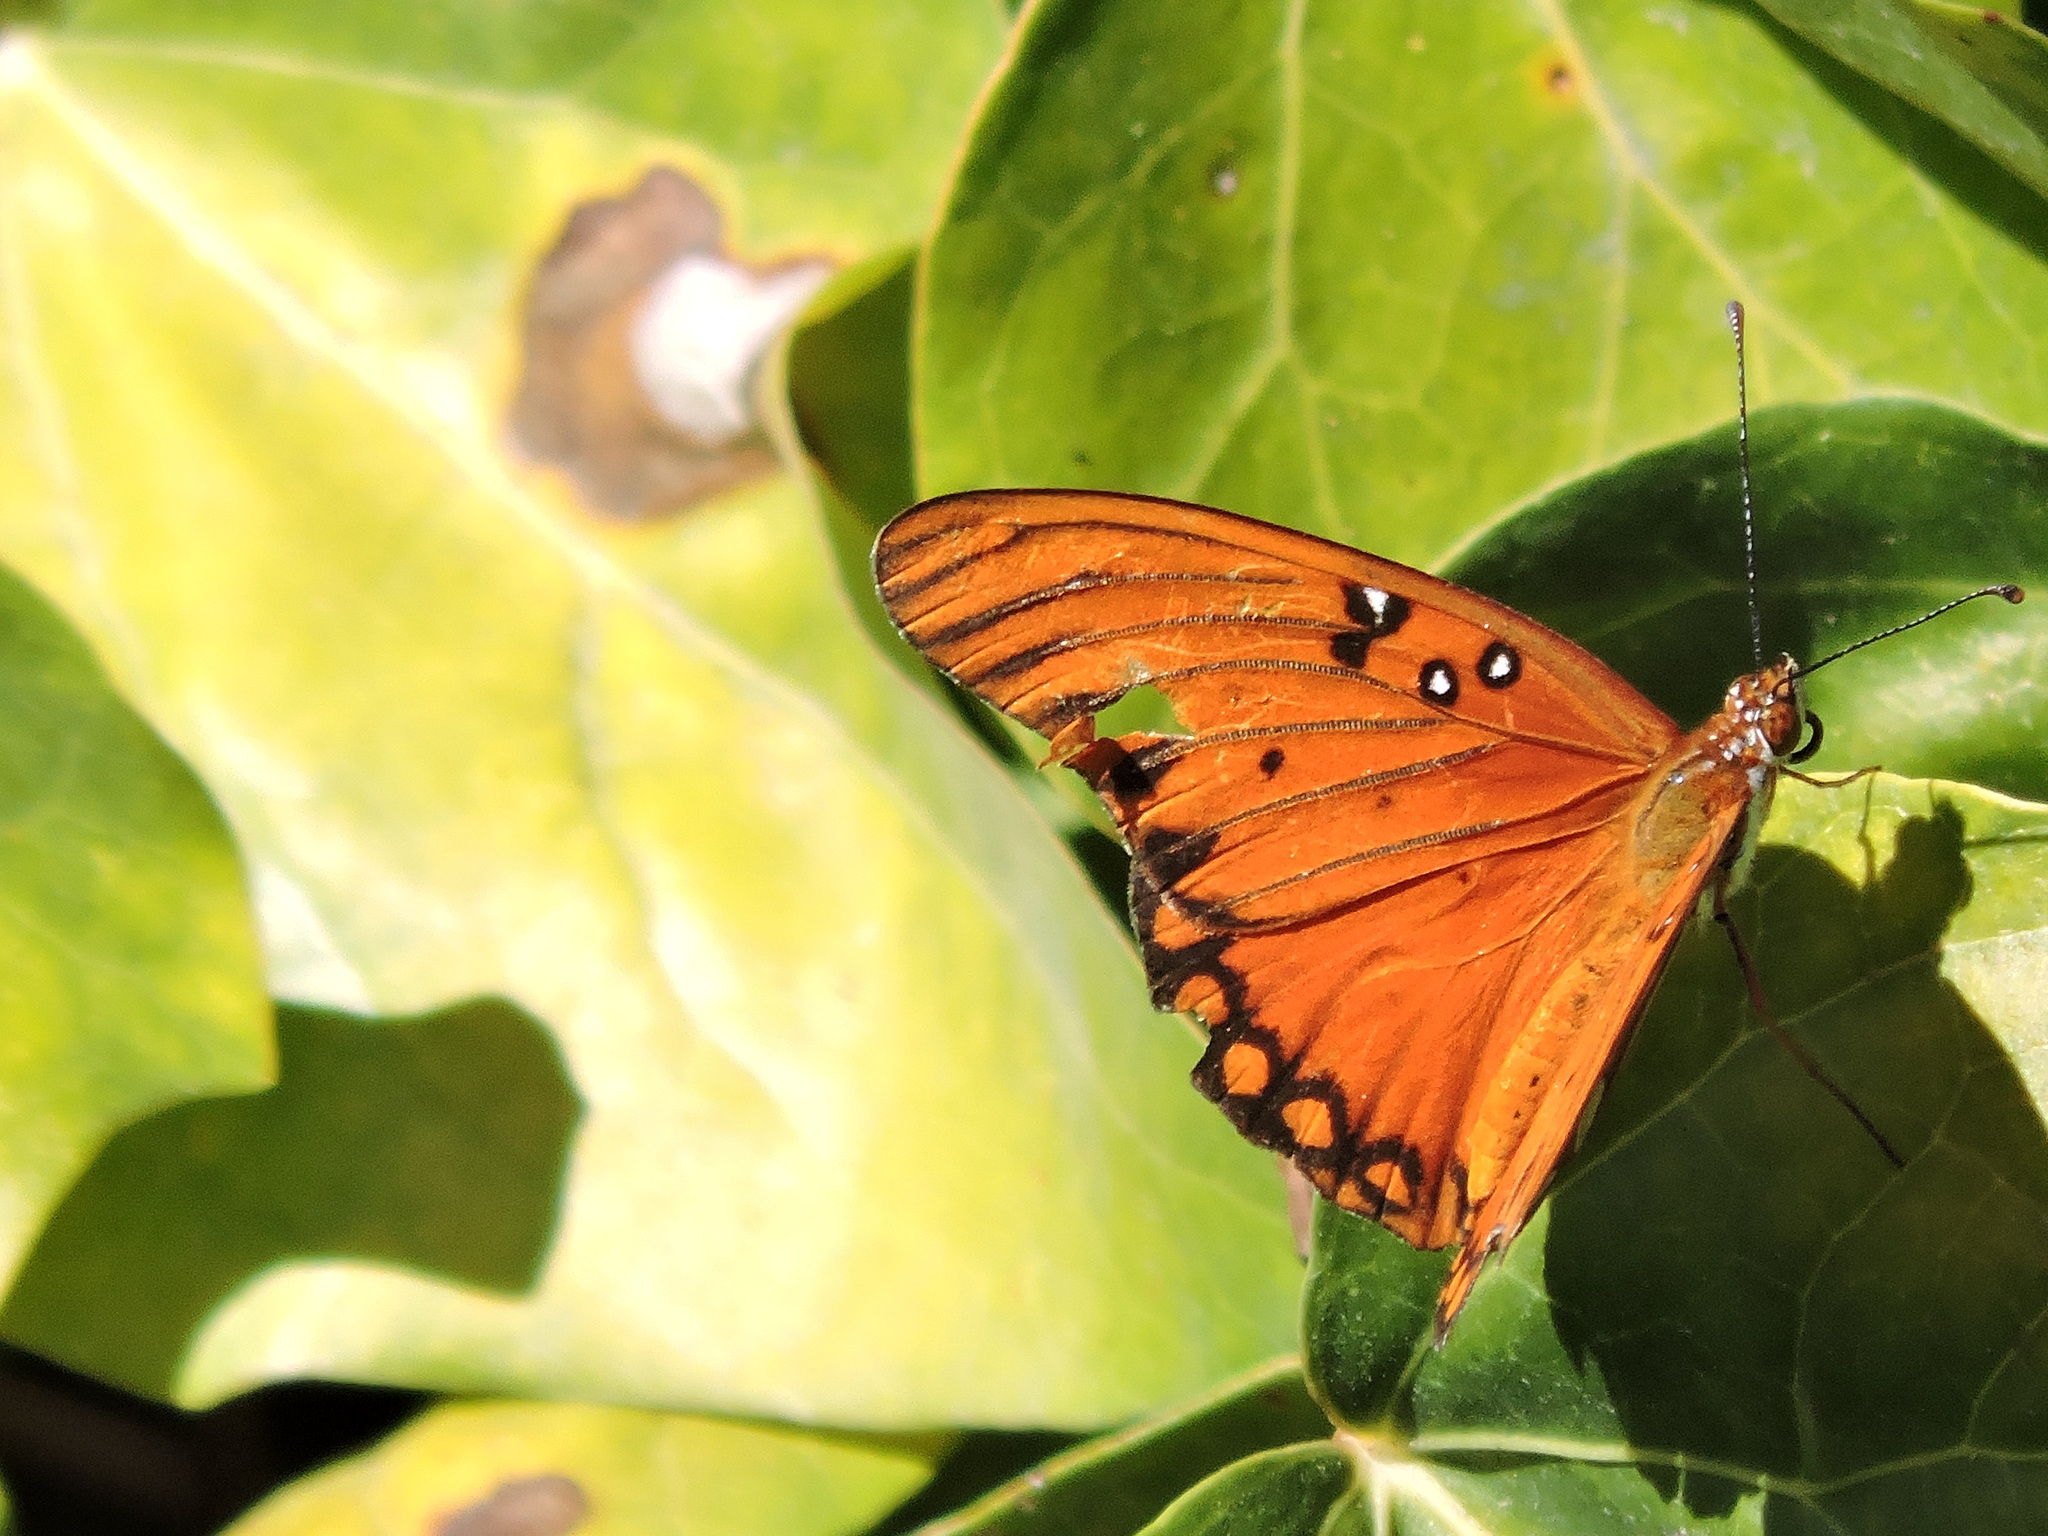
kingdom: Animalia
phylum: Arthropoda
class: Insecta
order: Lepidoptera
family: Nymphalidae
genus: Dione
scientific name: Dione vanillae
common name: Gulf fritillary
